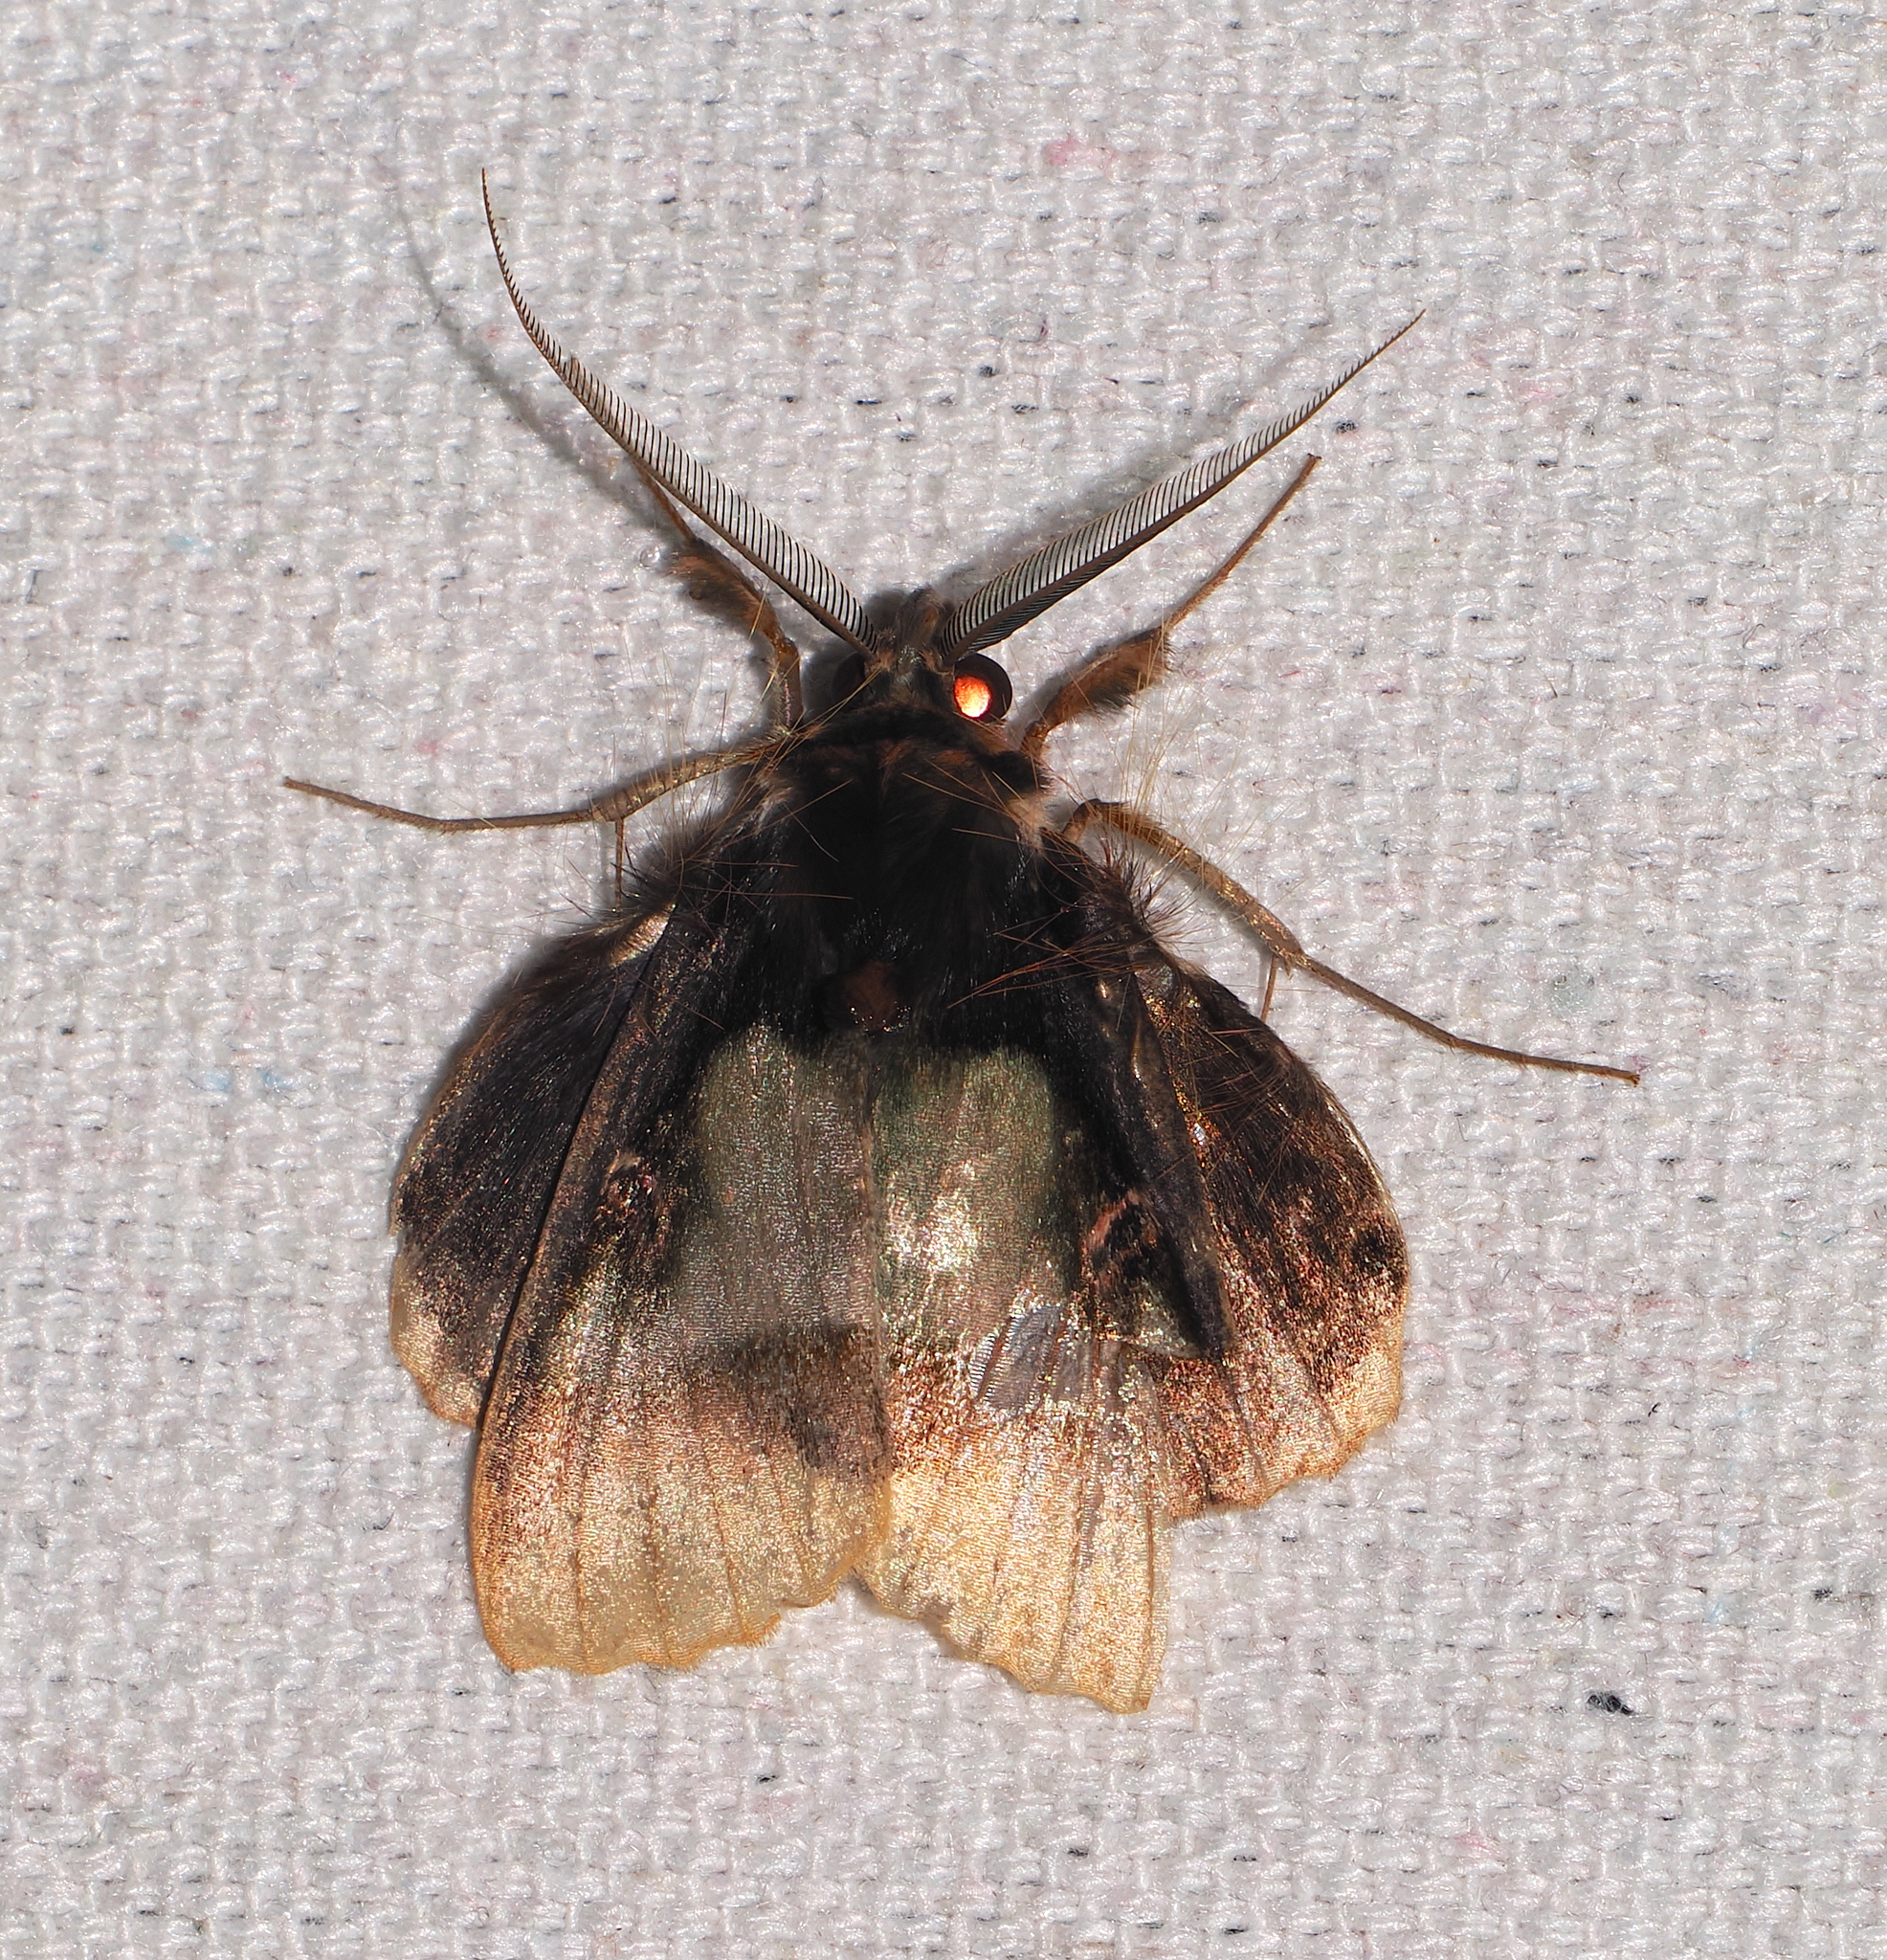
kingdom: Animalia
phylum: Arthropoda
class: Insecta
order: Lepidoptera
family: Erebidae
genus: Ceroctena
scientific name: Ceroctena amynta
